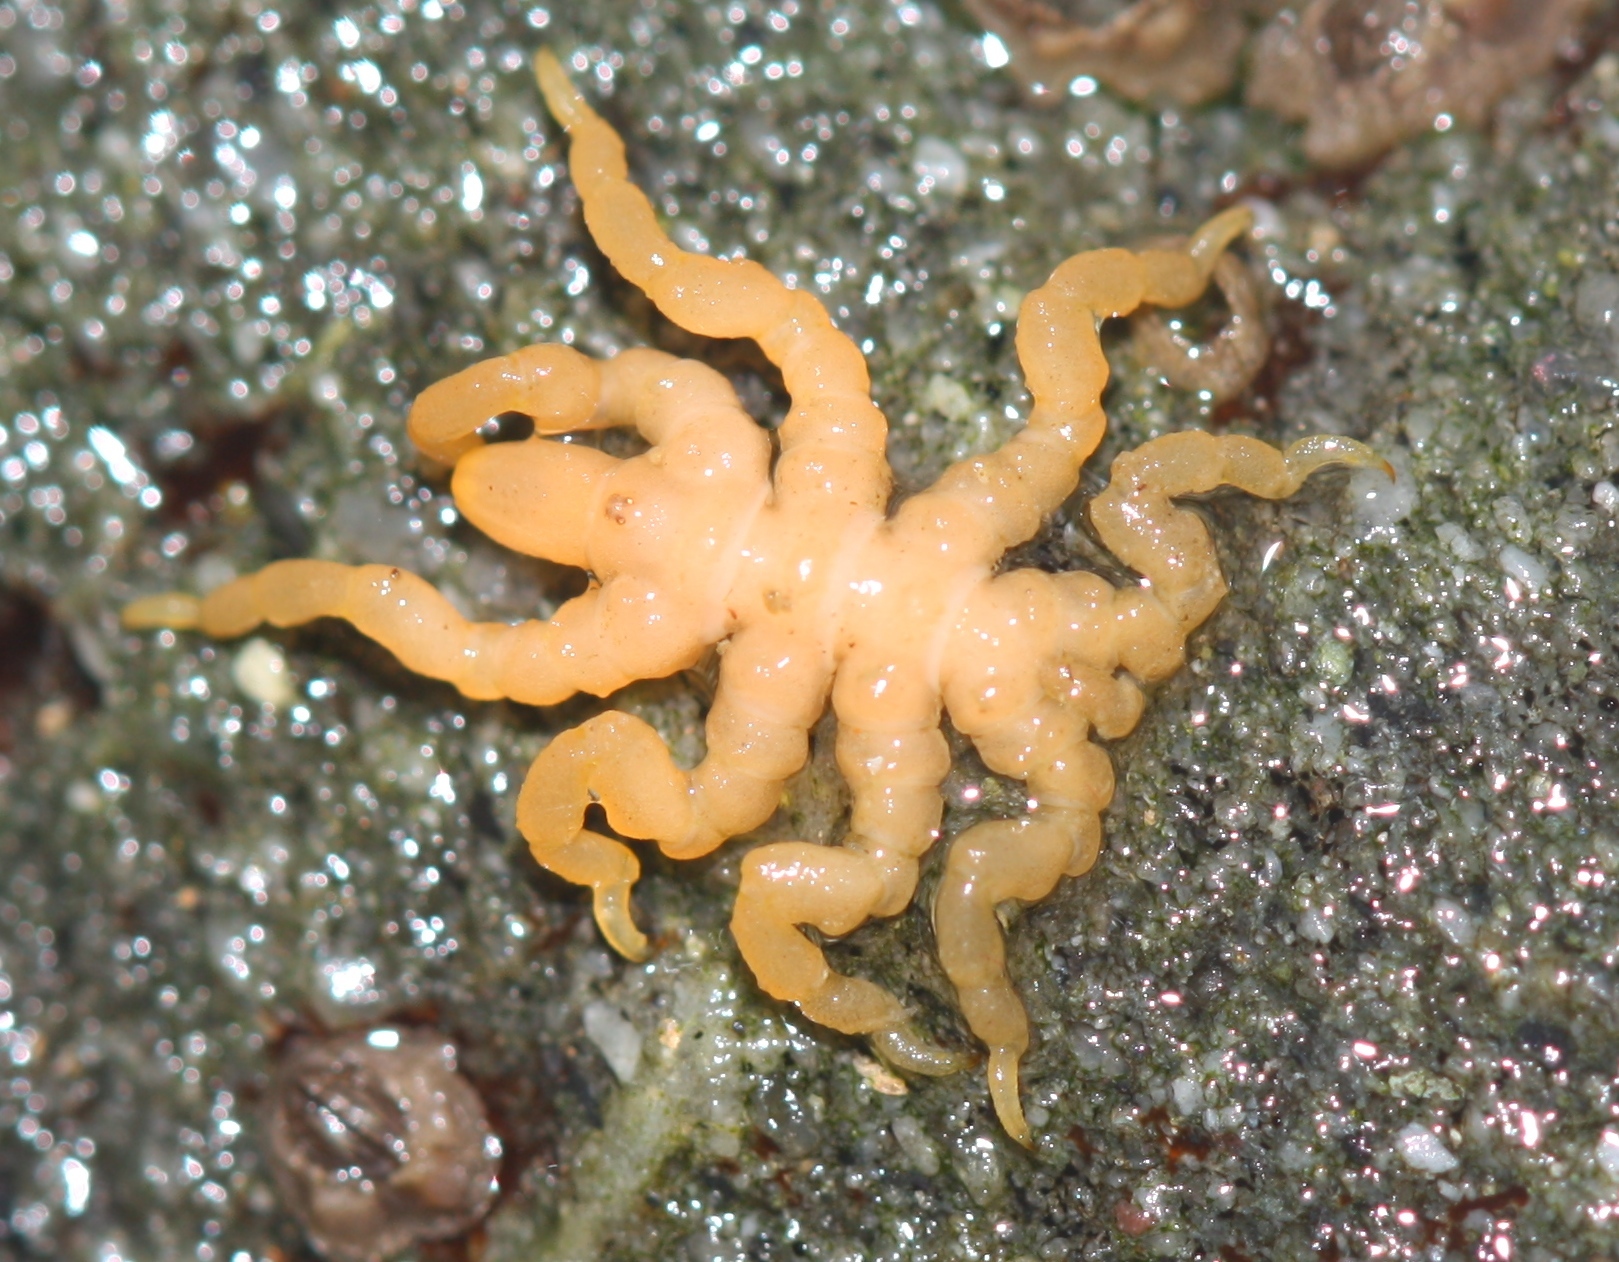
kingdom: Animalia
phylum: Arthropoda
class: Pycnogonida
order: Pantopoda
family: Pycnogonidae
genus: Pycnogonum
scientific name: Pycnogonum stearnsi
